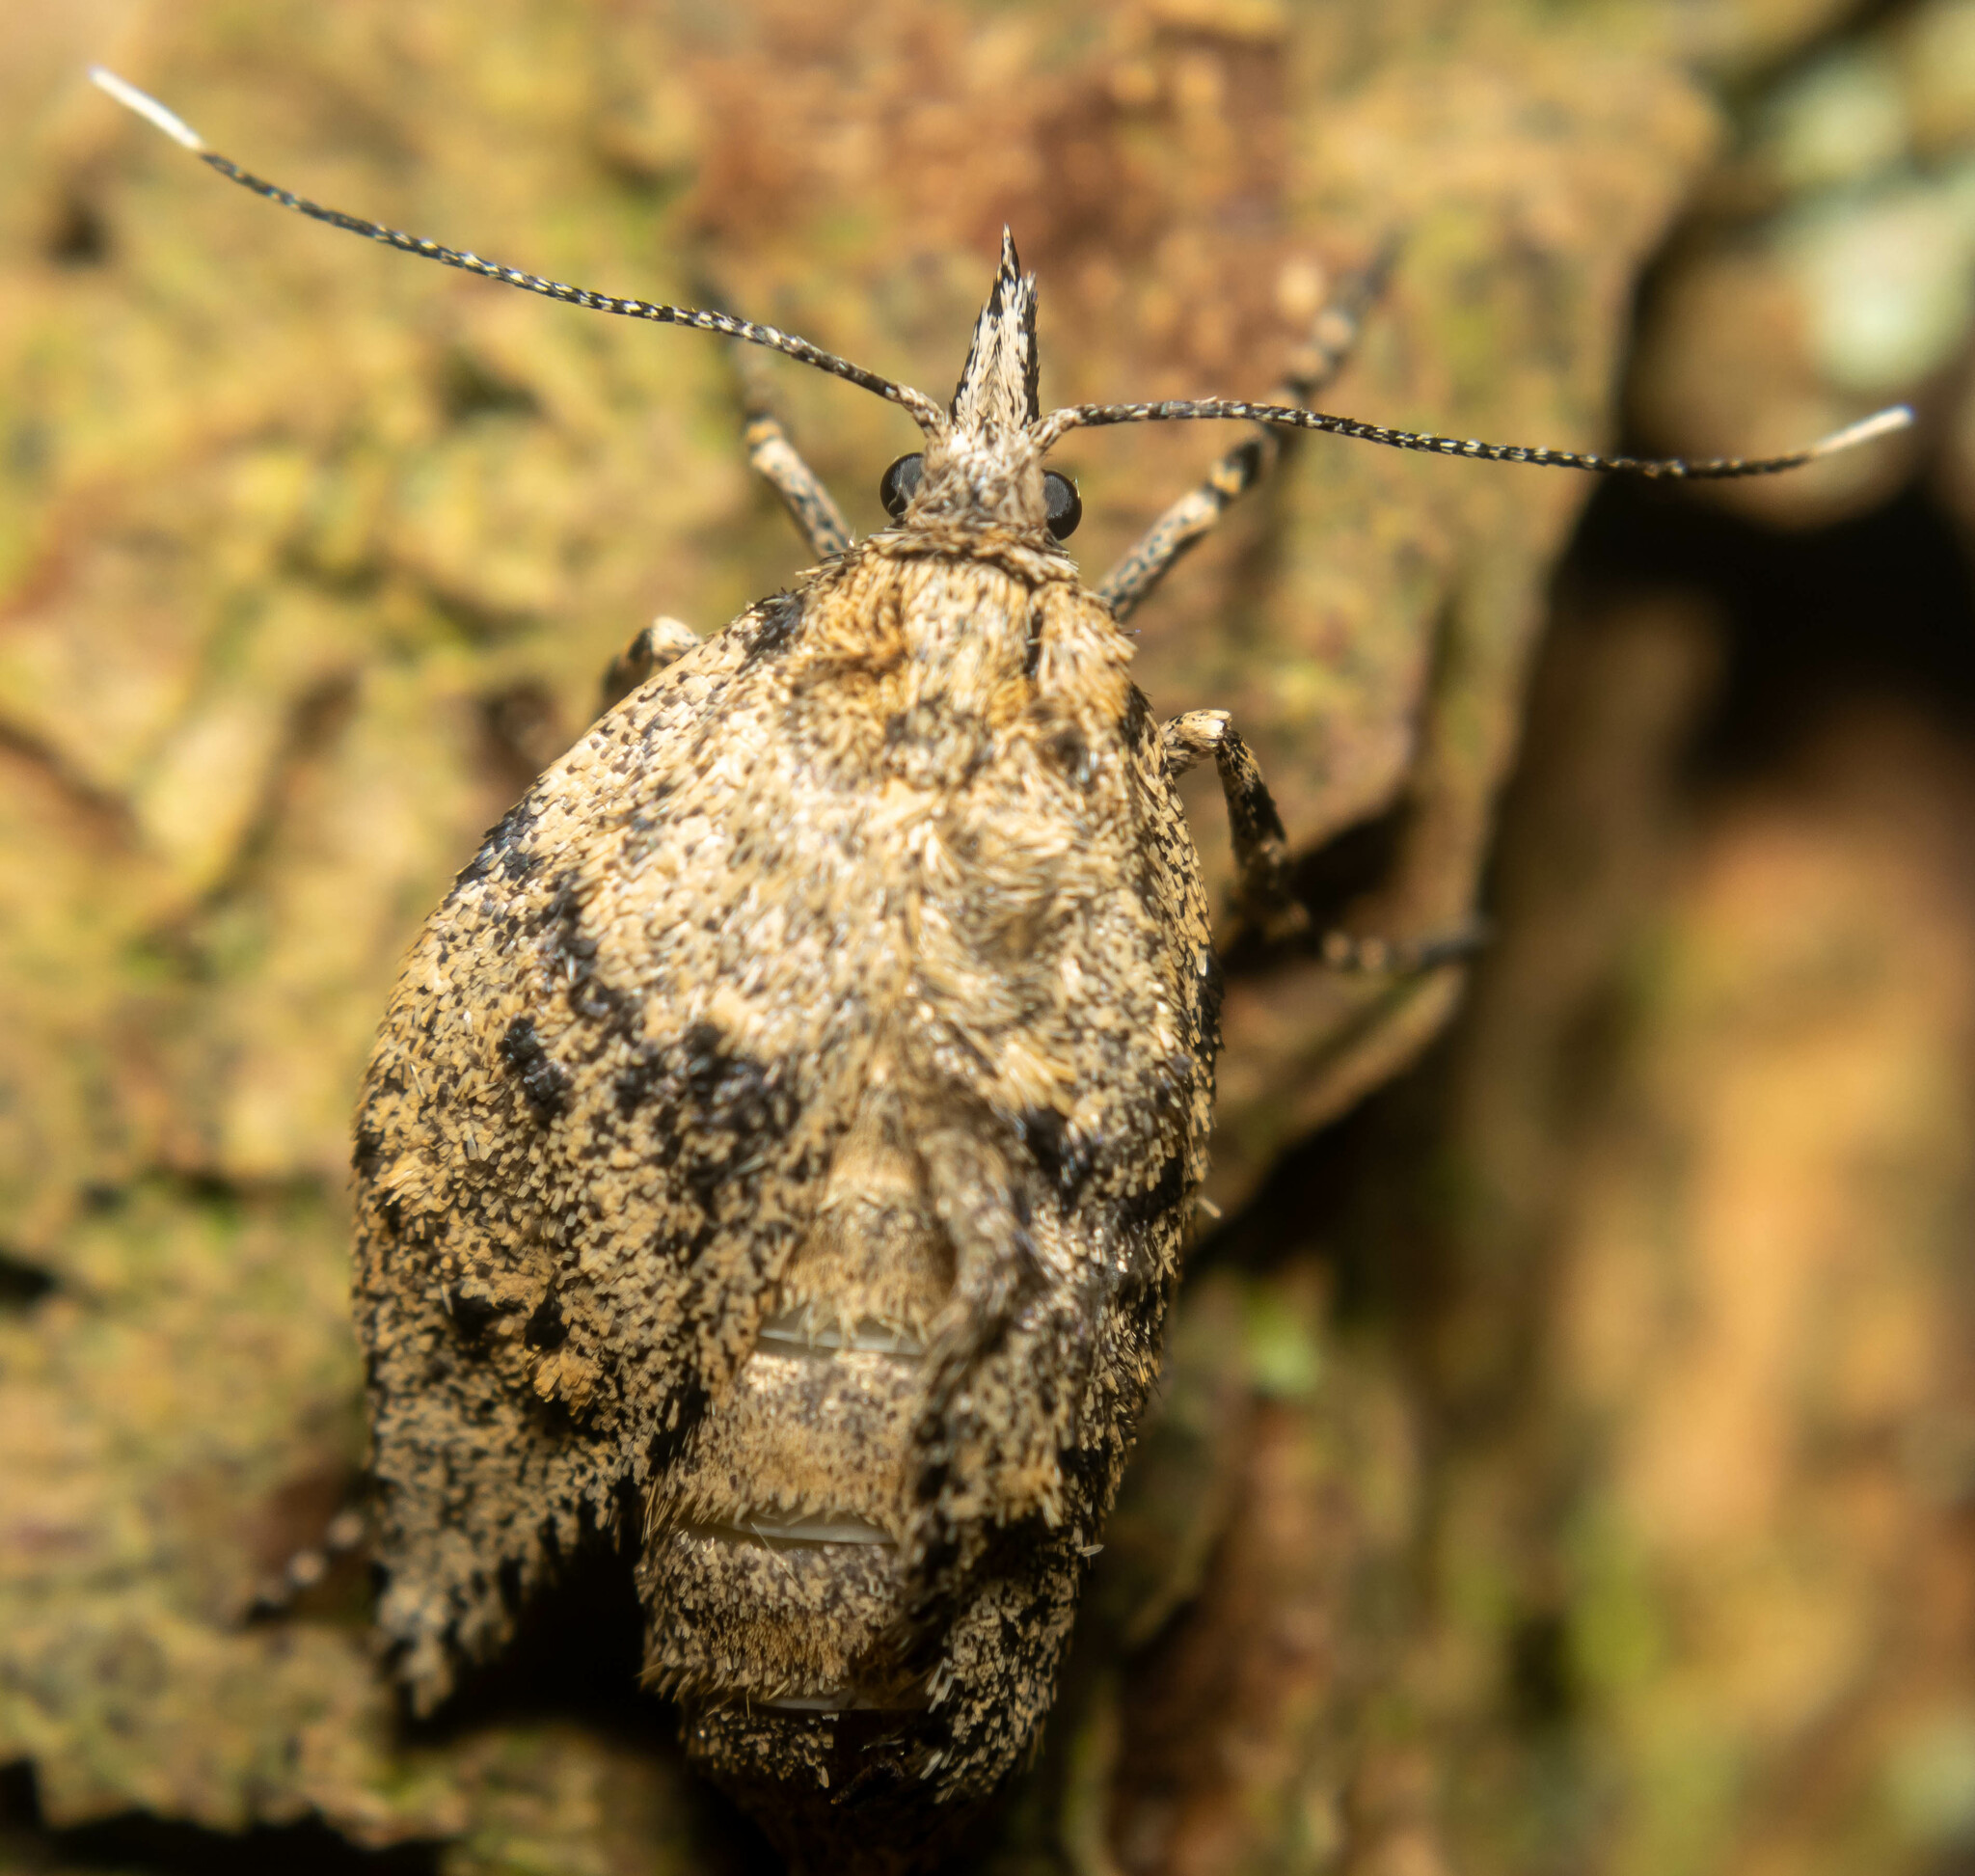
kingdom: Animalia
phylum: Arthropoda
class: Insecta
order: Lepidoptera
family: Lypusidae
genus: Diurnea
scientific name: Diurnea fagella
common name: March tubic
